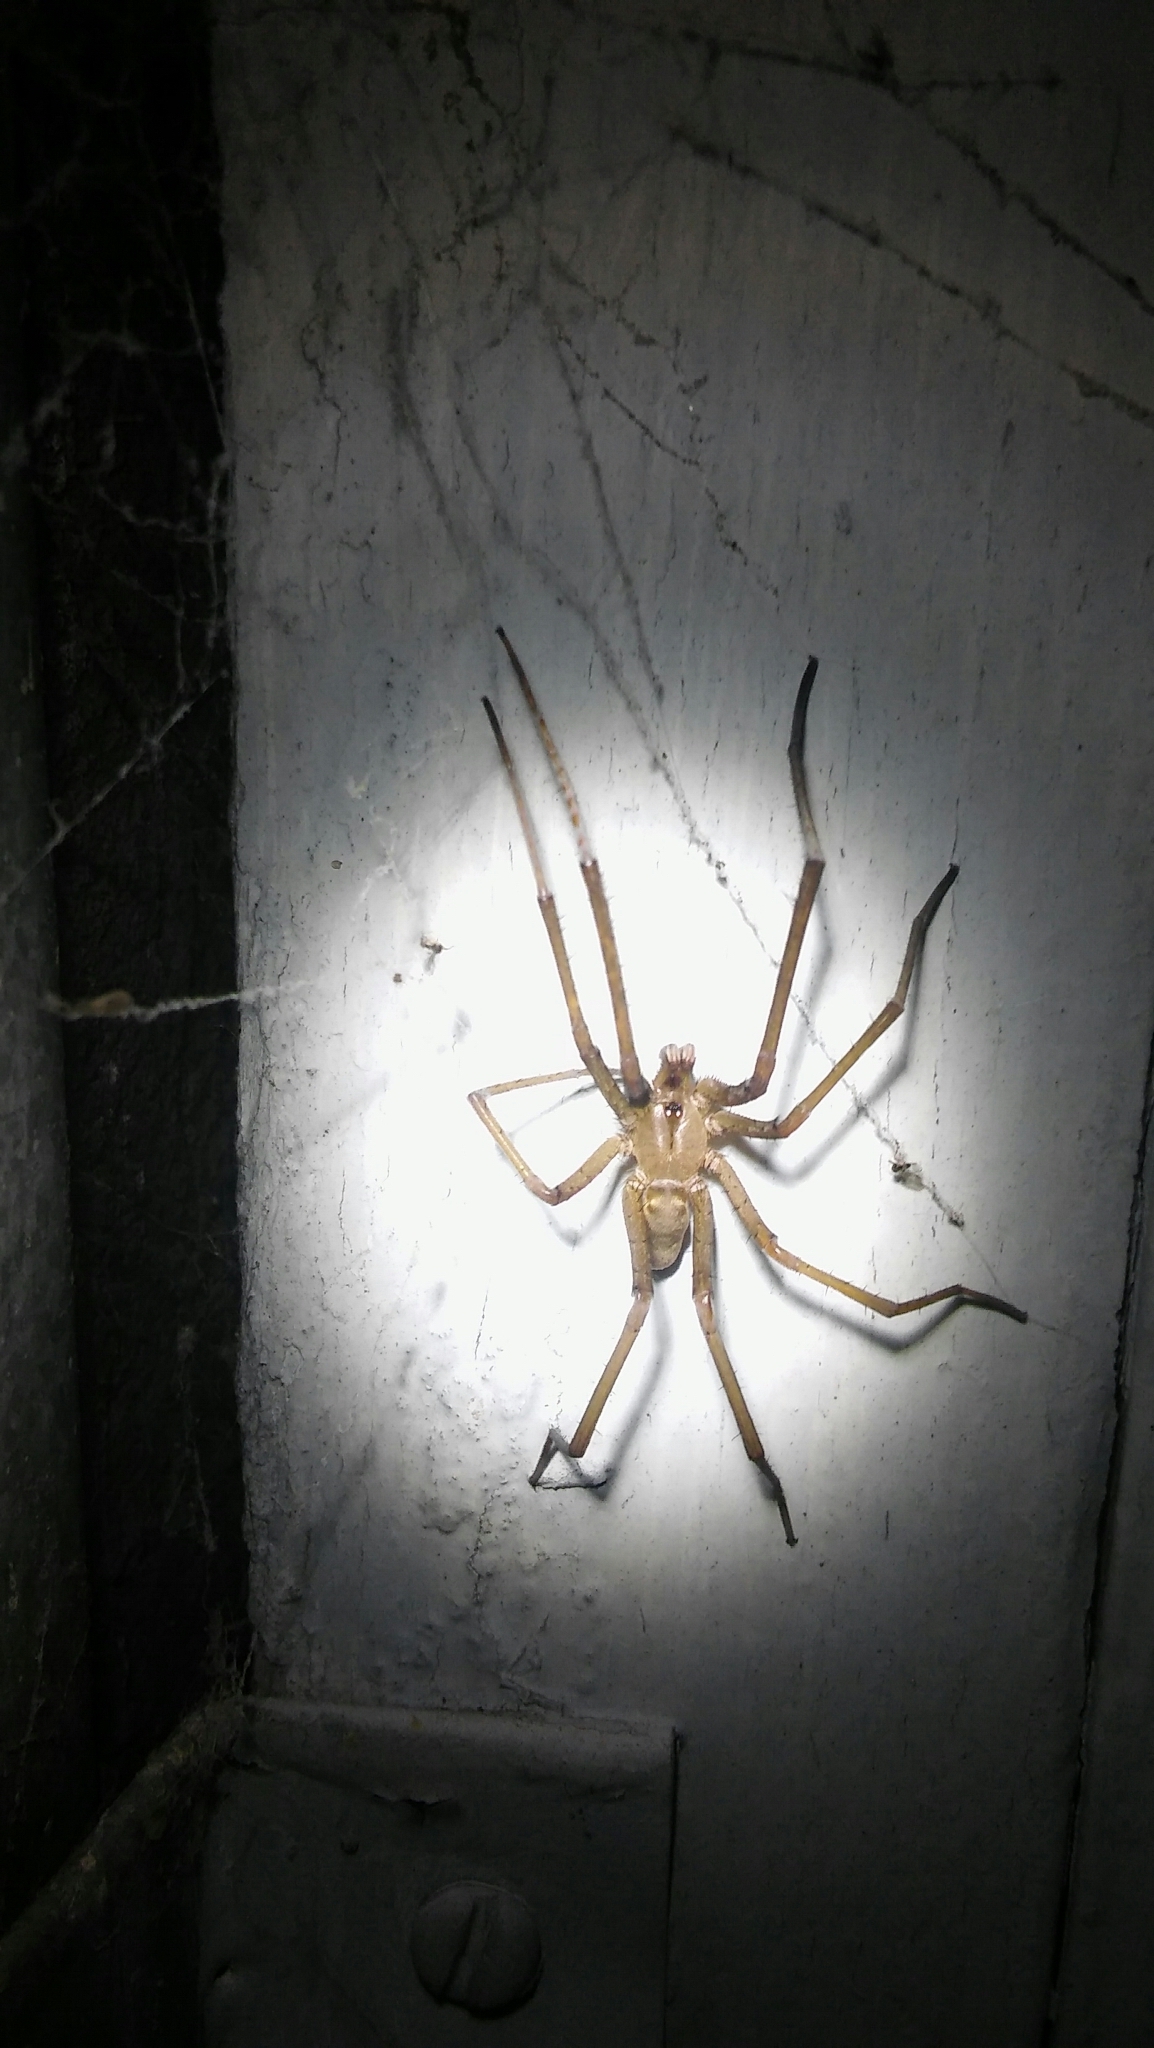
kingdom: Animalia
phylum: Arthropoda
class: Arachnida
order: Araneae
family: Filistatidae
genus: Kukulcania
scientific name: Kukulcania hibernalis
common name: Crevice weaver
